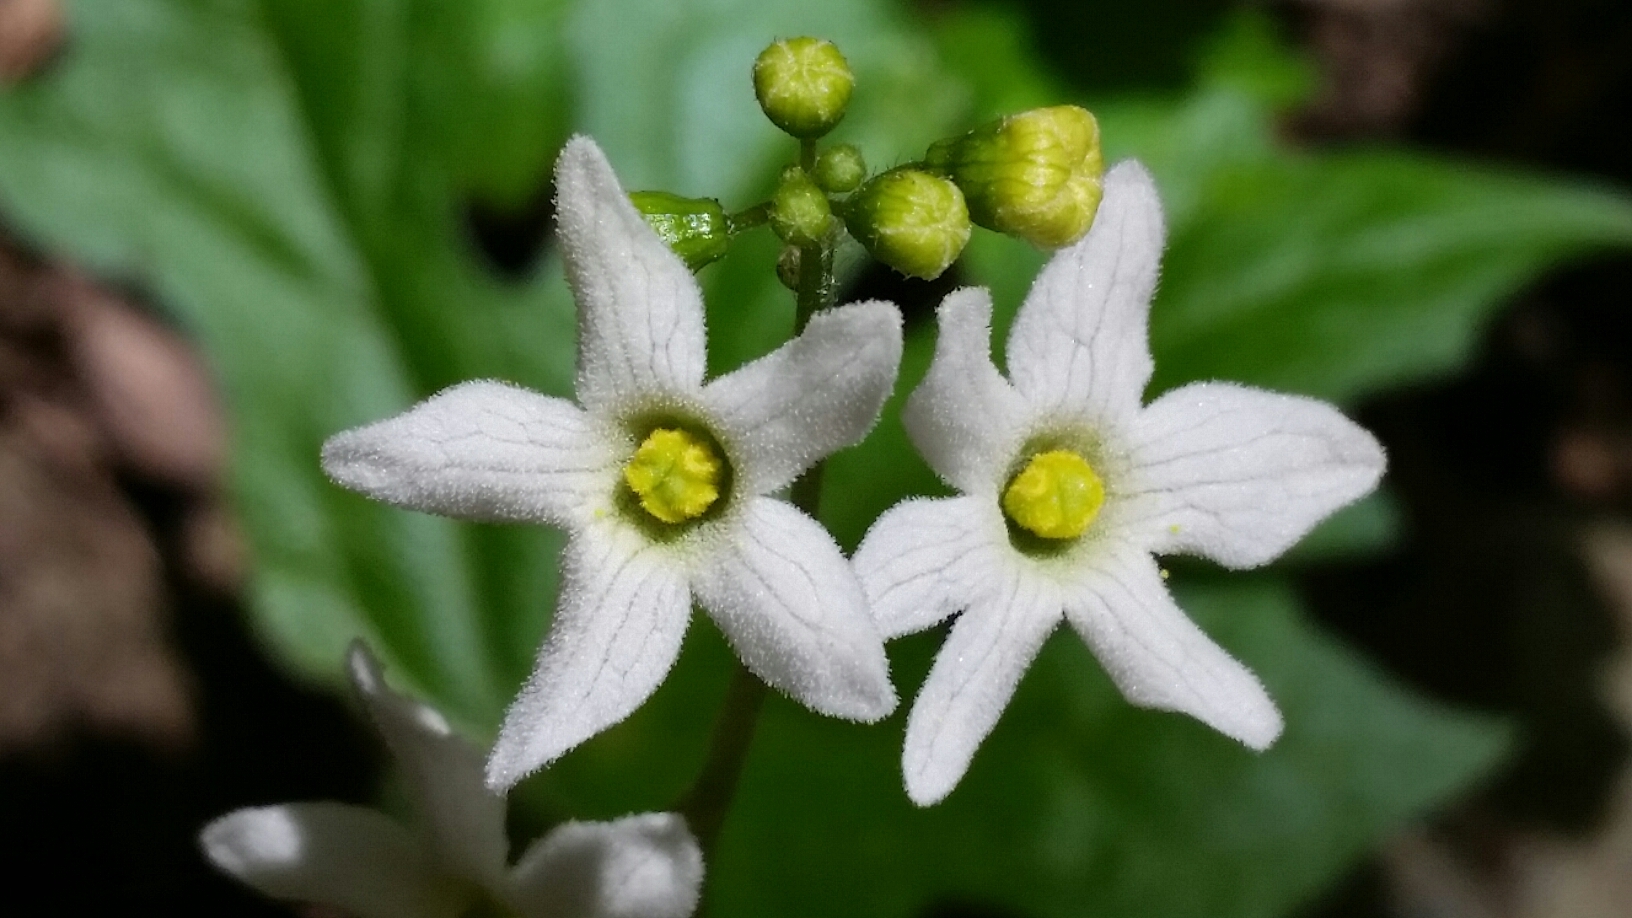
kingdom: Plantae
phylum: Tracheophyta
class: Magnoliopsida
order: Cucurbitales
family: Cucurbitaceae
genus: Marah
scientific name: Marah oregana
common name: Coastal manroot
